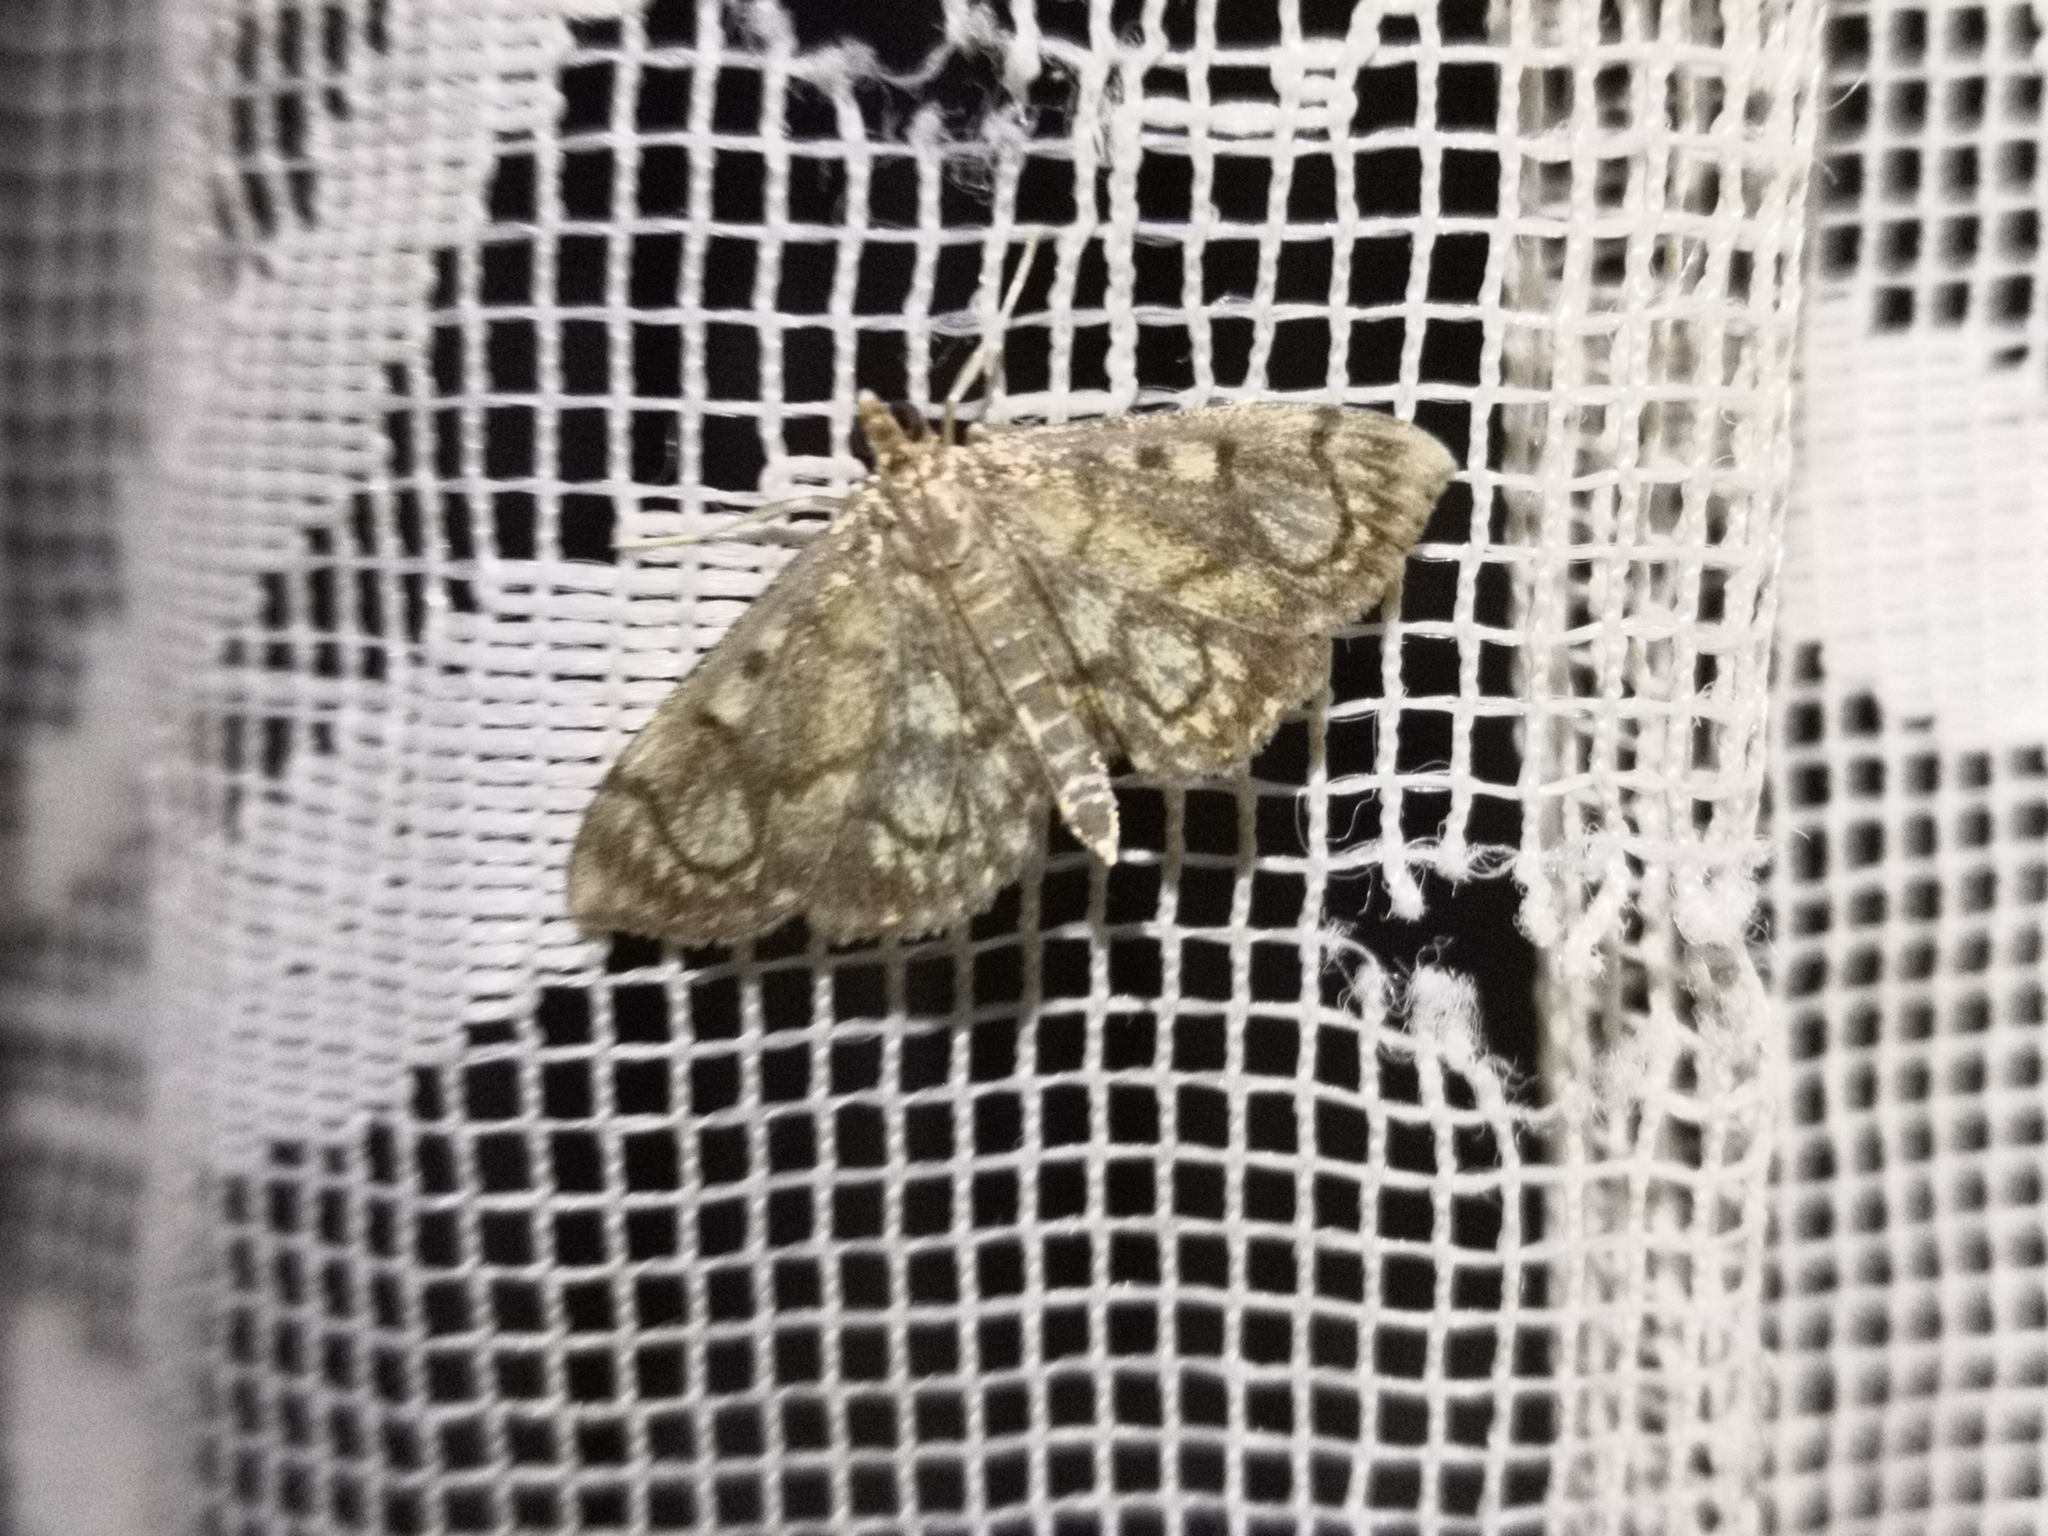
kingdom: Animalia
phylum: Arthropoda
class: Insecta
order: Lepidoptera
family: Crambidae
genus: Anania
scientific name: Anania stachydalis
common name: Woundwort pearl
